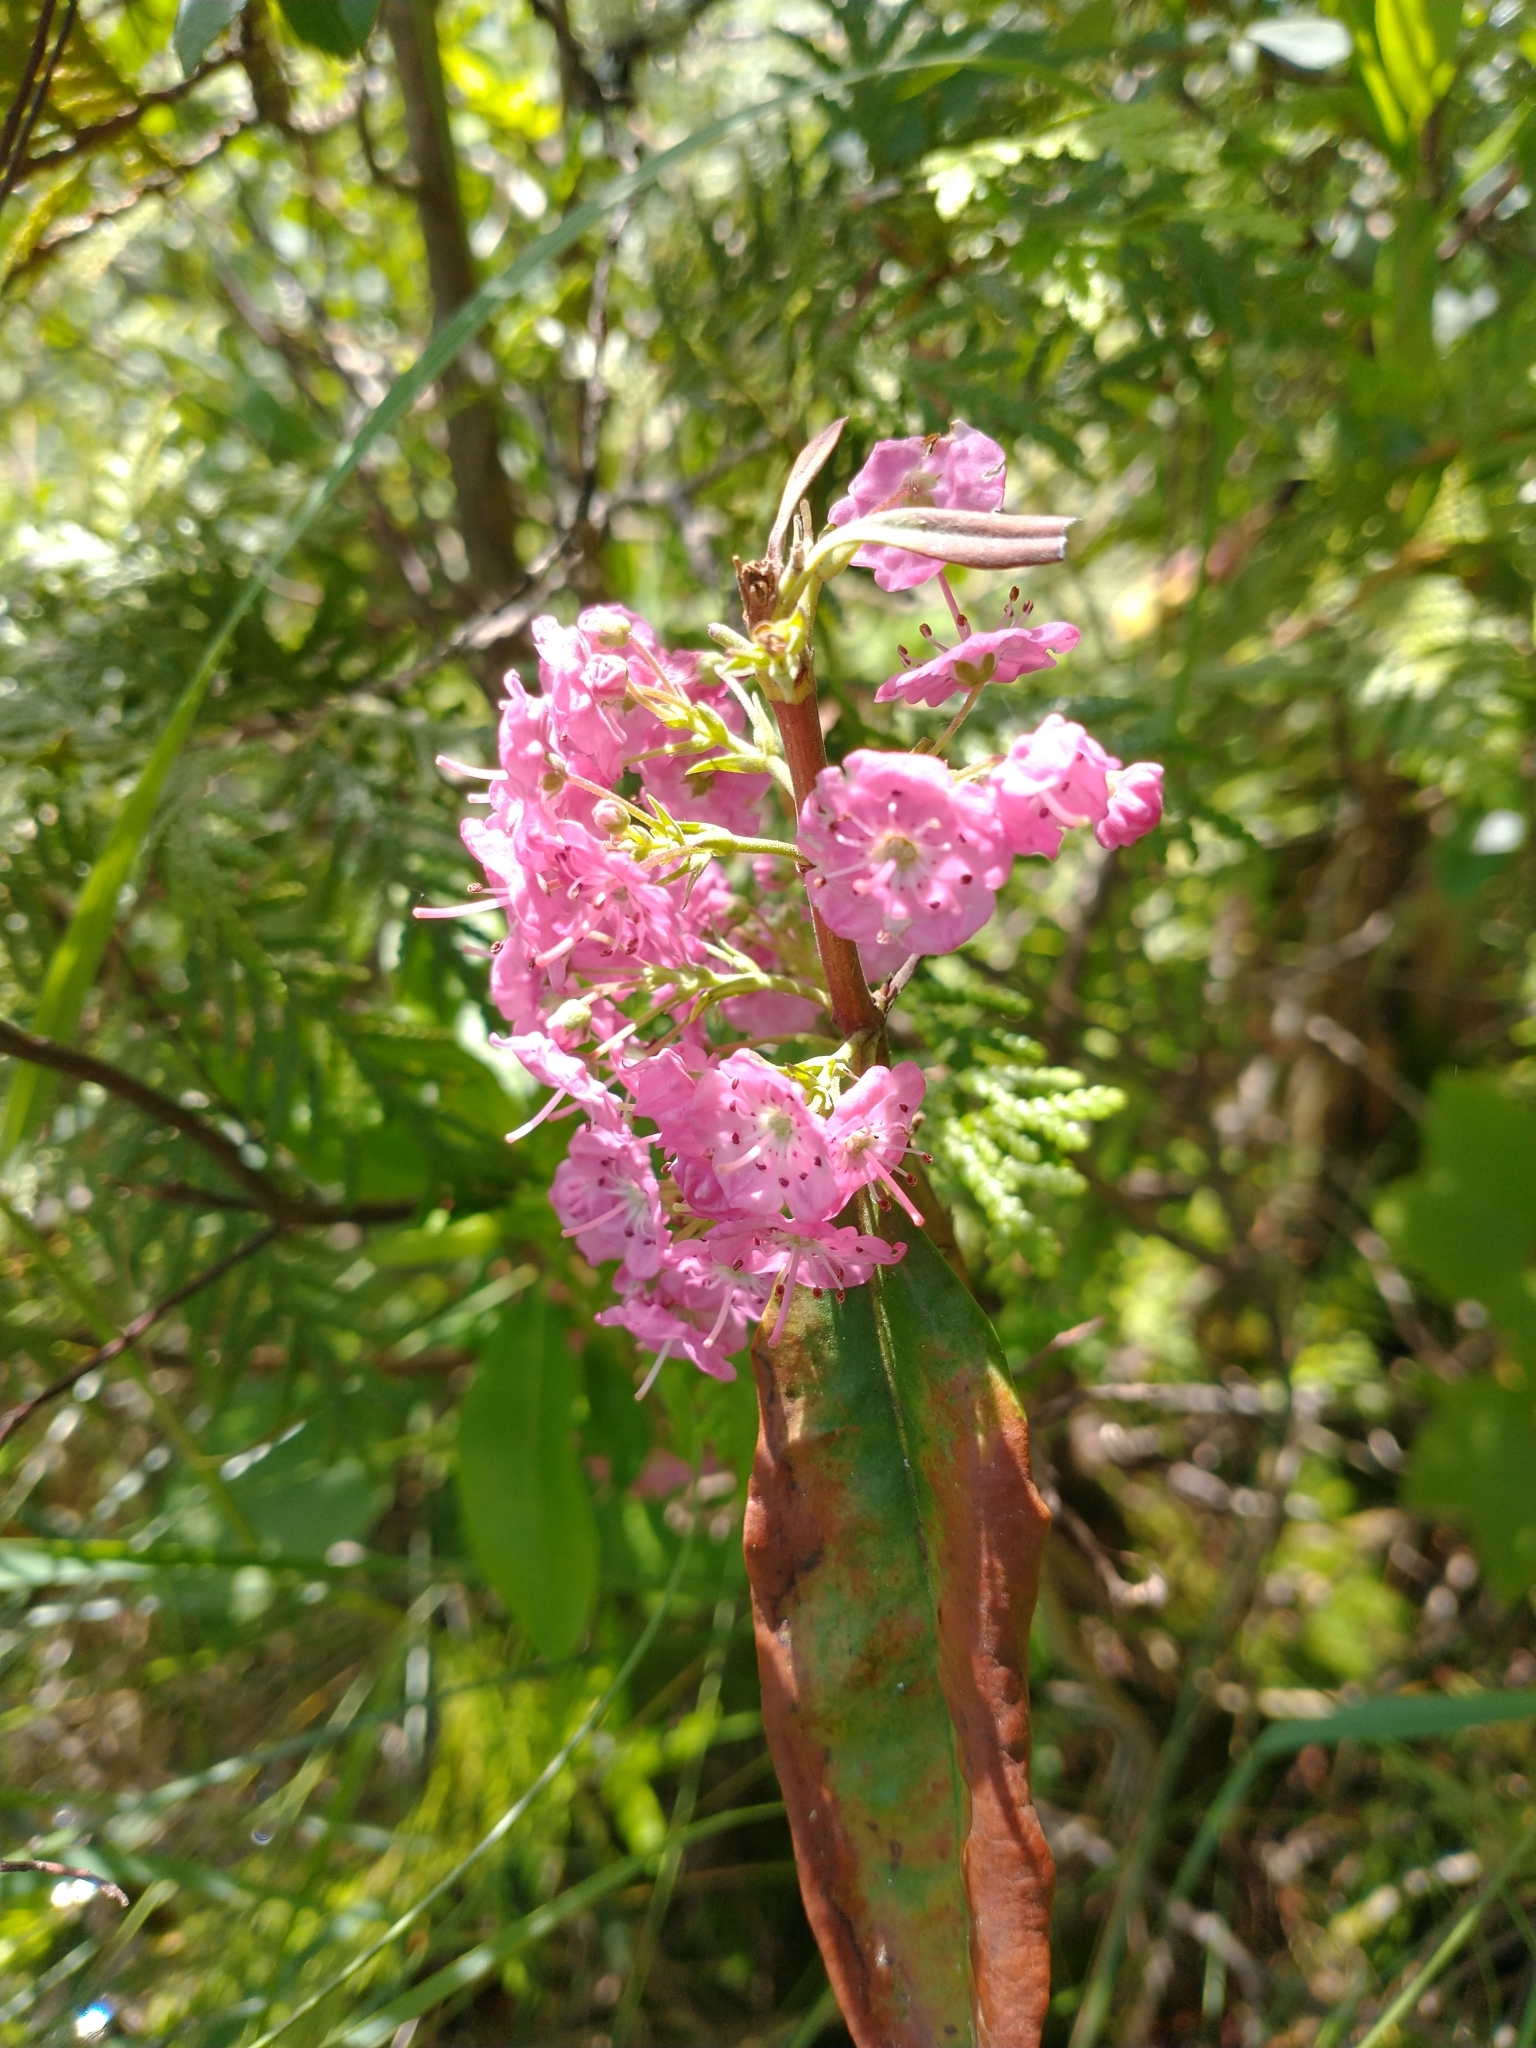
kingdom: Plantae
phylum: Tracheophyta
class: Magnoliopsida
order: Ericales
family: Ericaceae
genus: Kalmia
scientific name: Kalmia angustifolia
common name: Sheep-laurel
